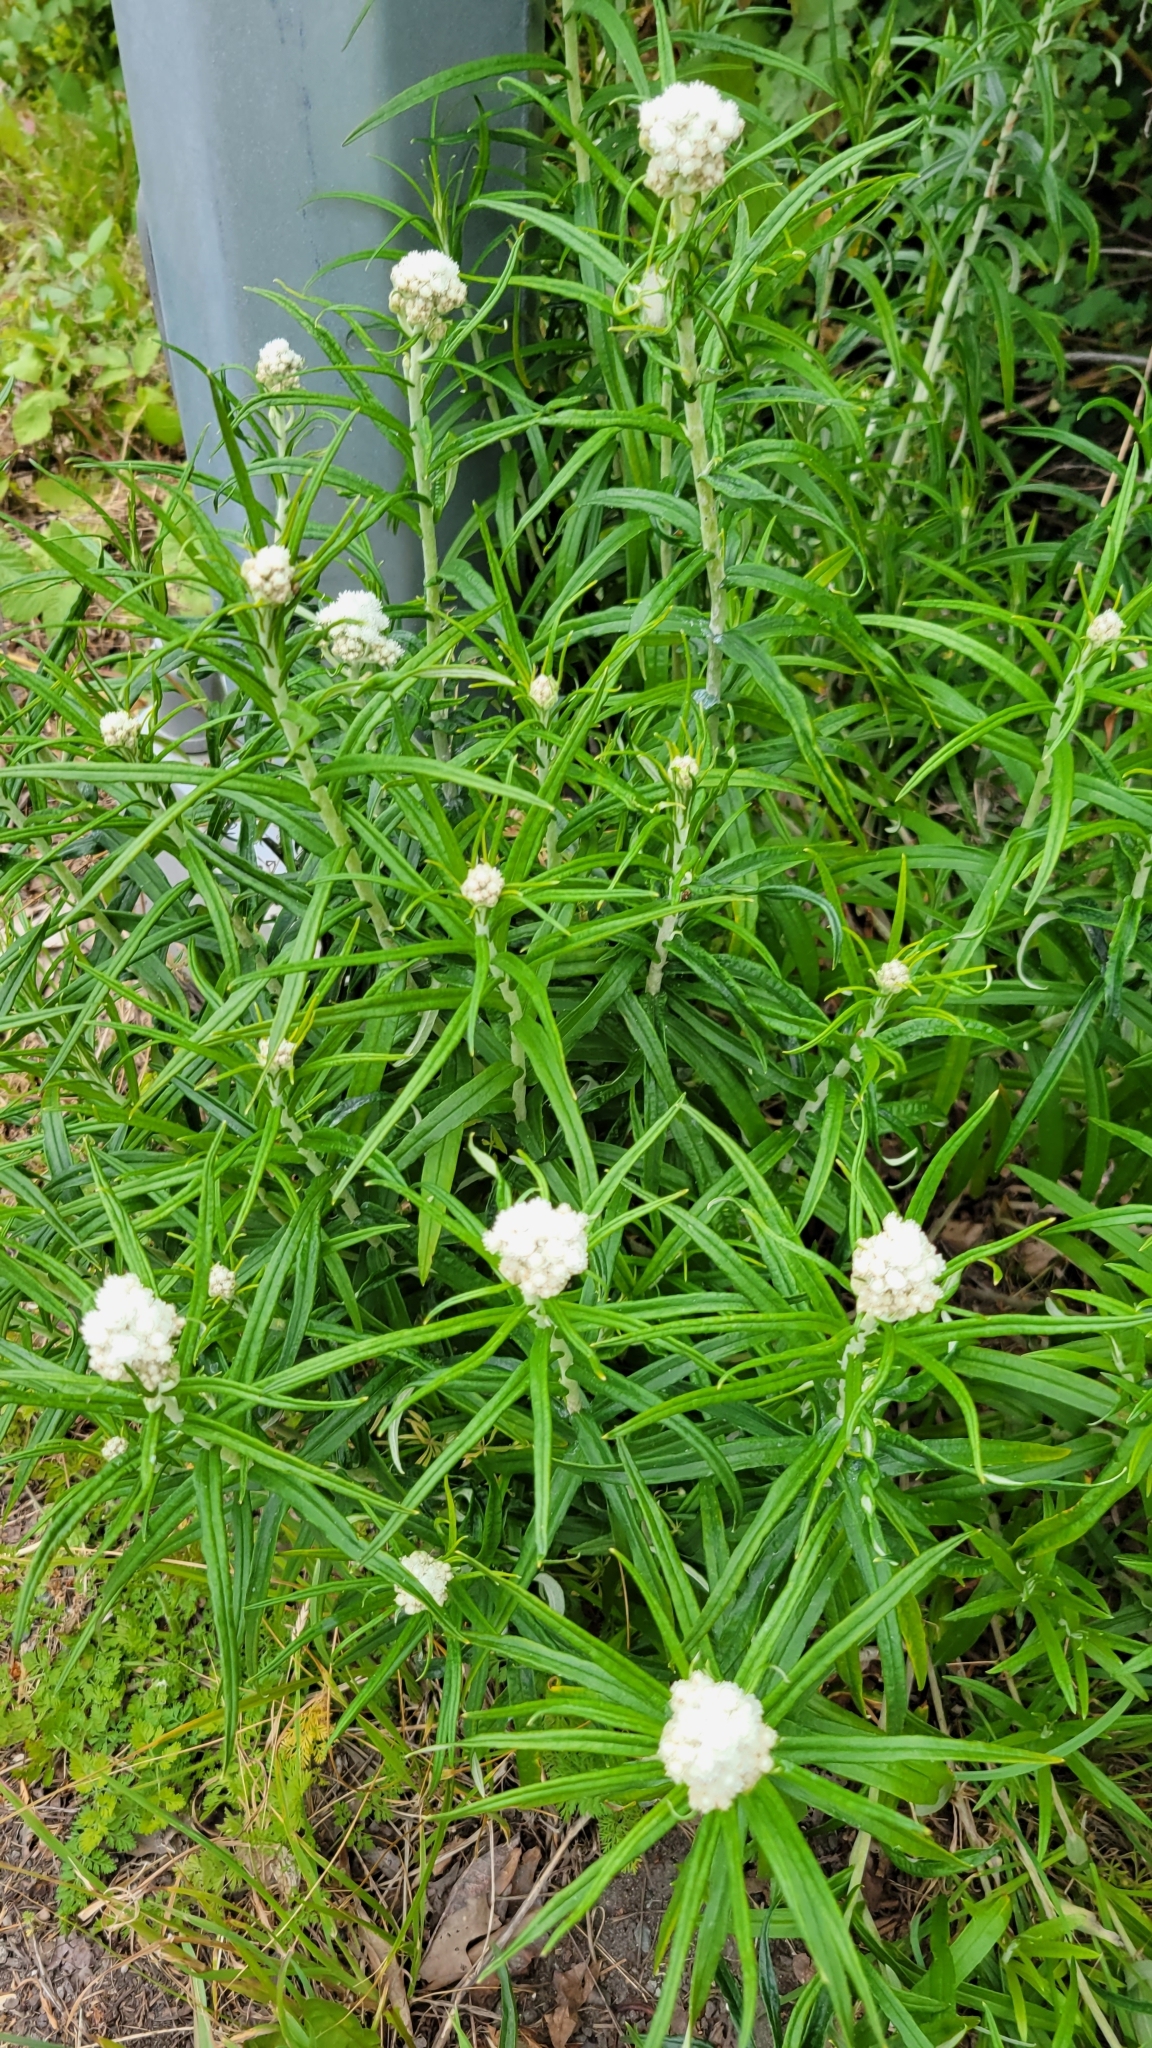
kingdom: Plantae
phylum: Tracheophyta
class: Magnoliopsida
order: Asterales
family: Asteraceae
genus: Anaphalis
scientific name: Anaphalis margaritacea
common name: Pearly everlasting
